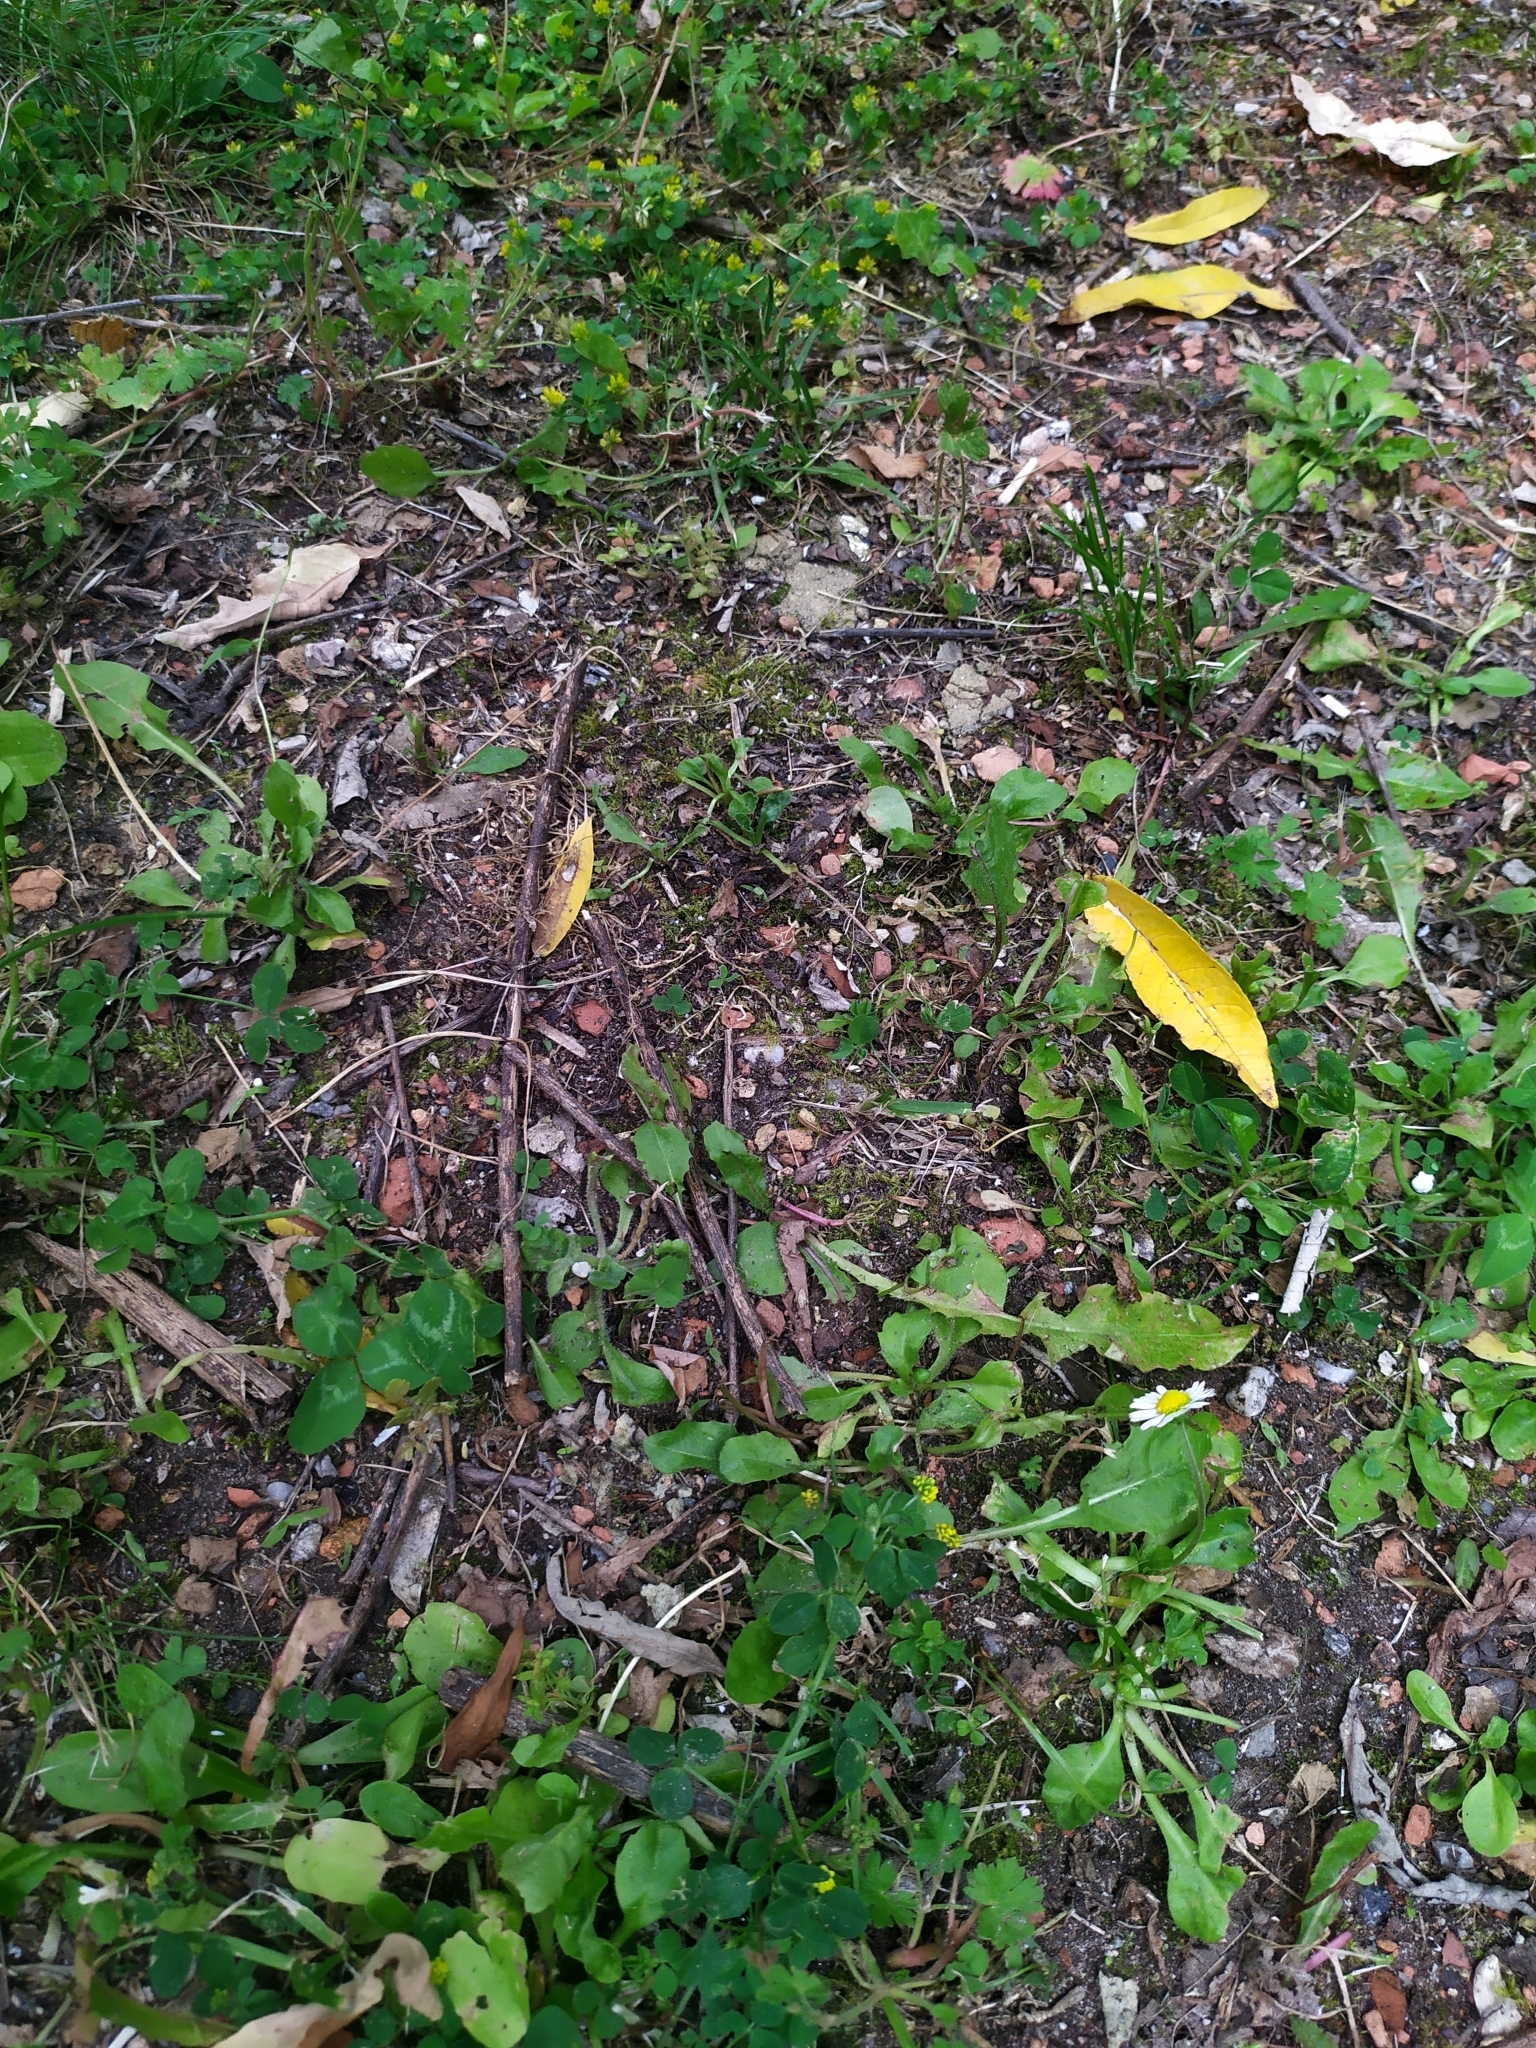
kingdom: Plantae
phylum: Tracheophyta
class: Magnoliopsida
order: Fabales
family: Fabaceae
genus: Medicago
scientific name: Medicago lupulina
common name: Black medick
